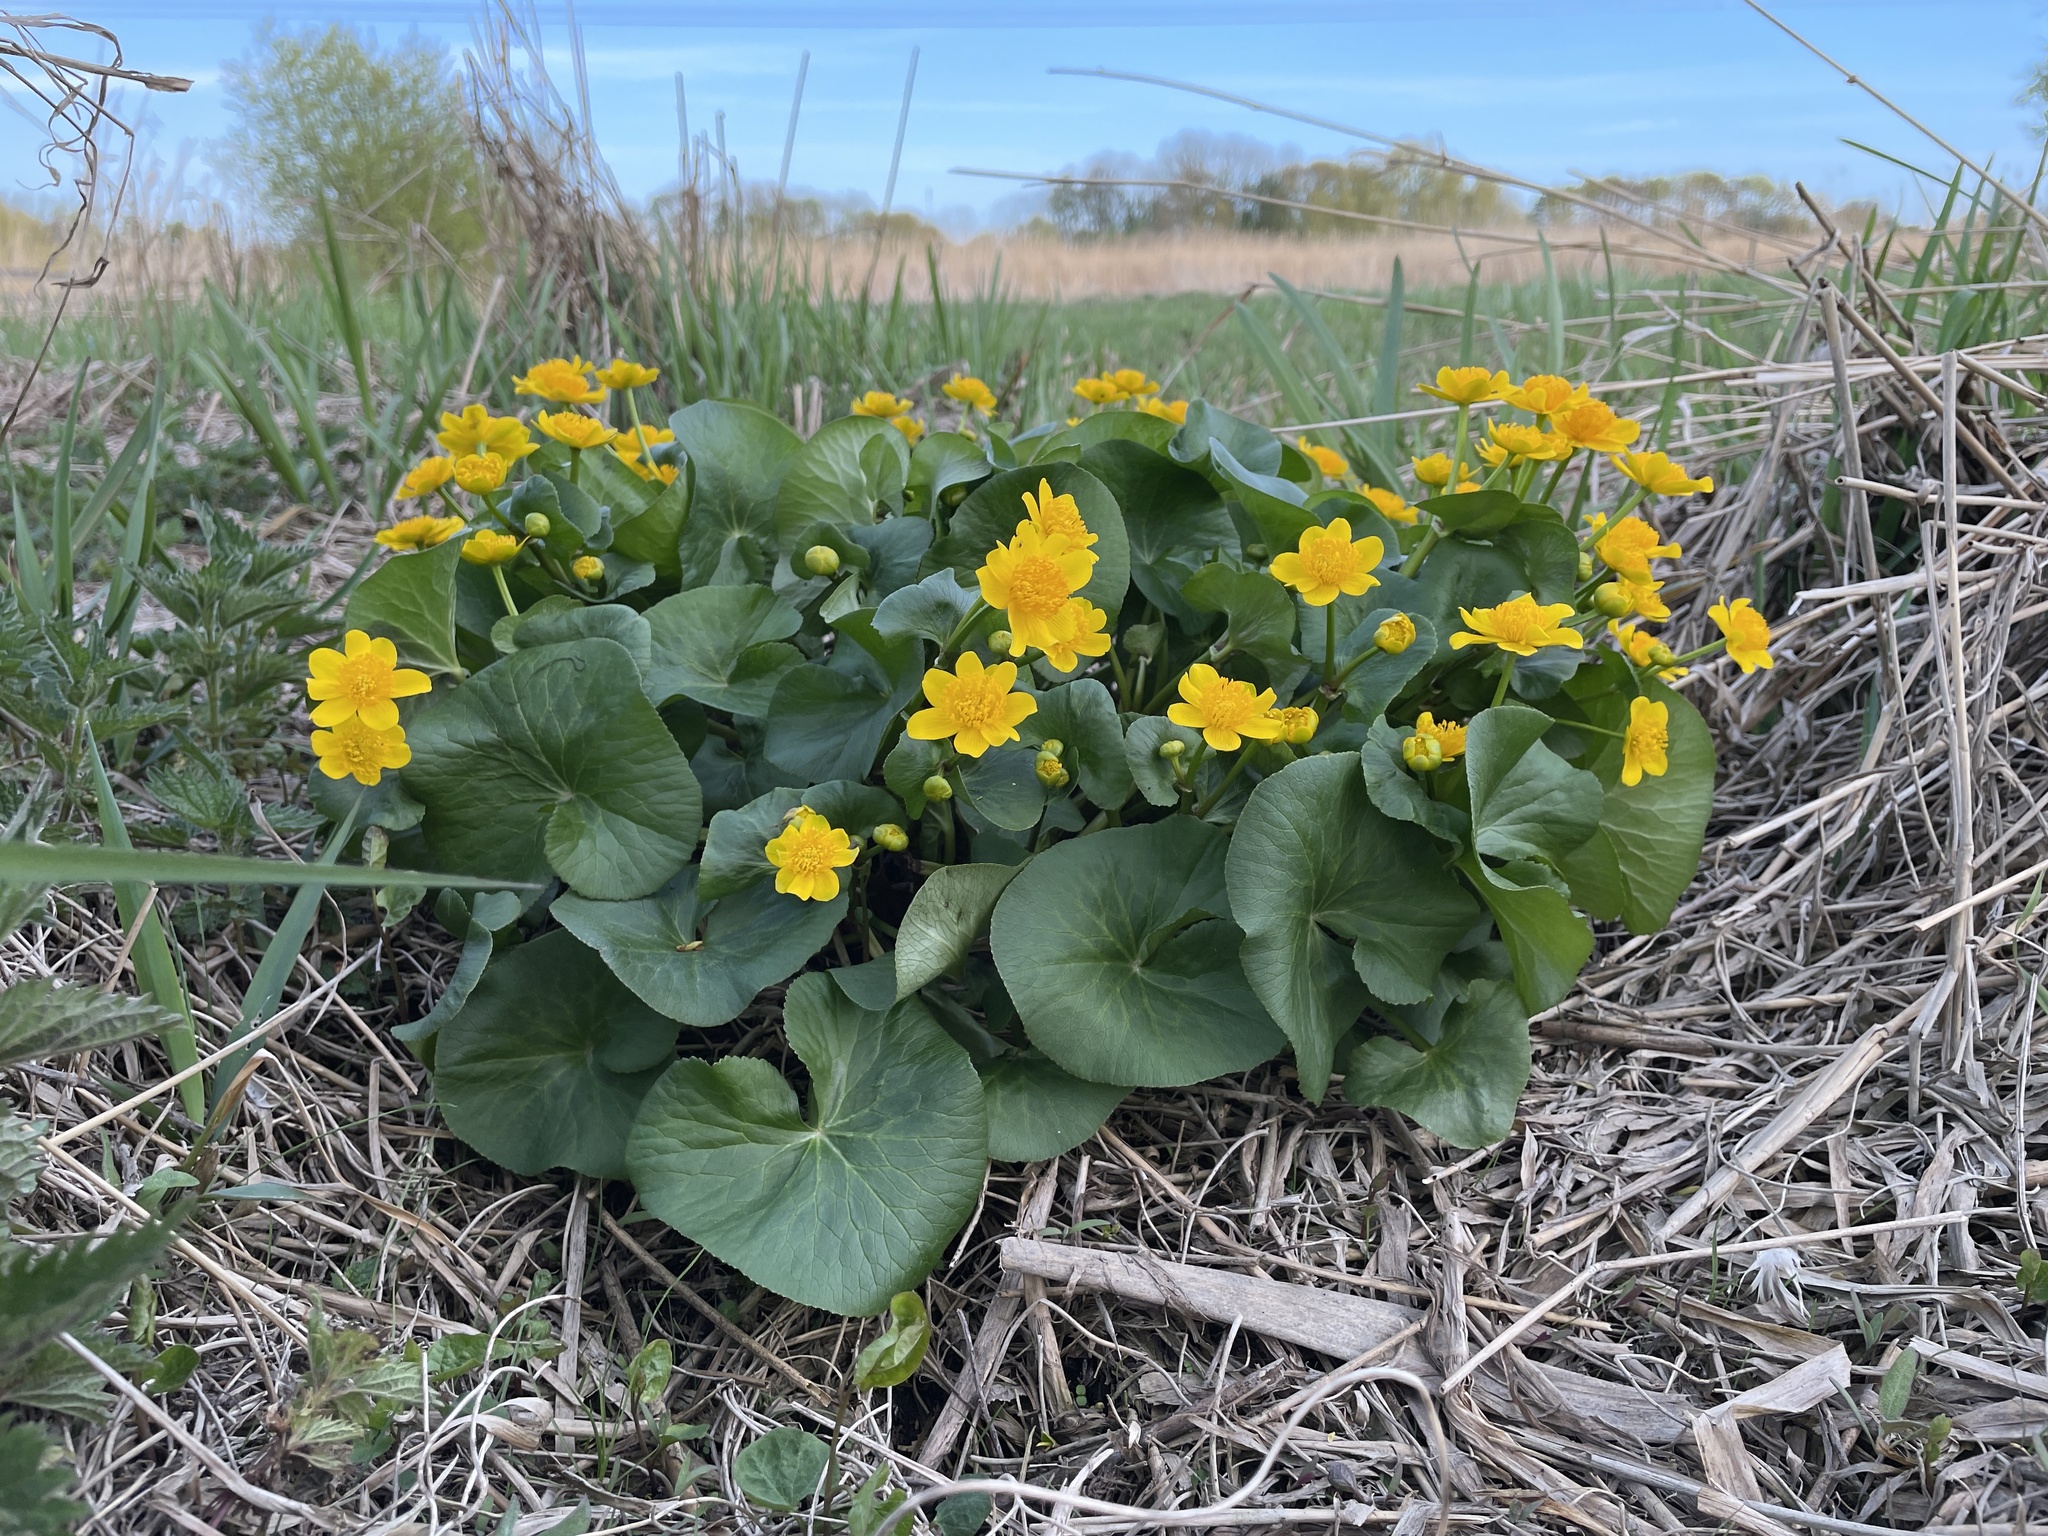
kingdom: Plantae
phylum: Tracheophyta
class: Magnoliopsida
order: Ranunculales
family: Ranunculaceae
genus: Caltha
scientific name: Caltha palustris
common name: Marsh marigold
